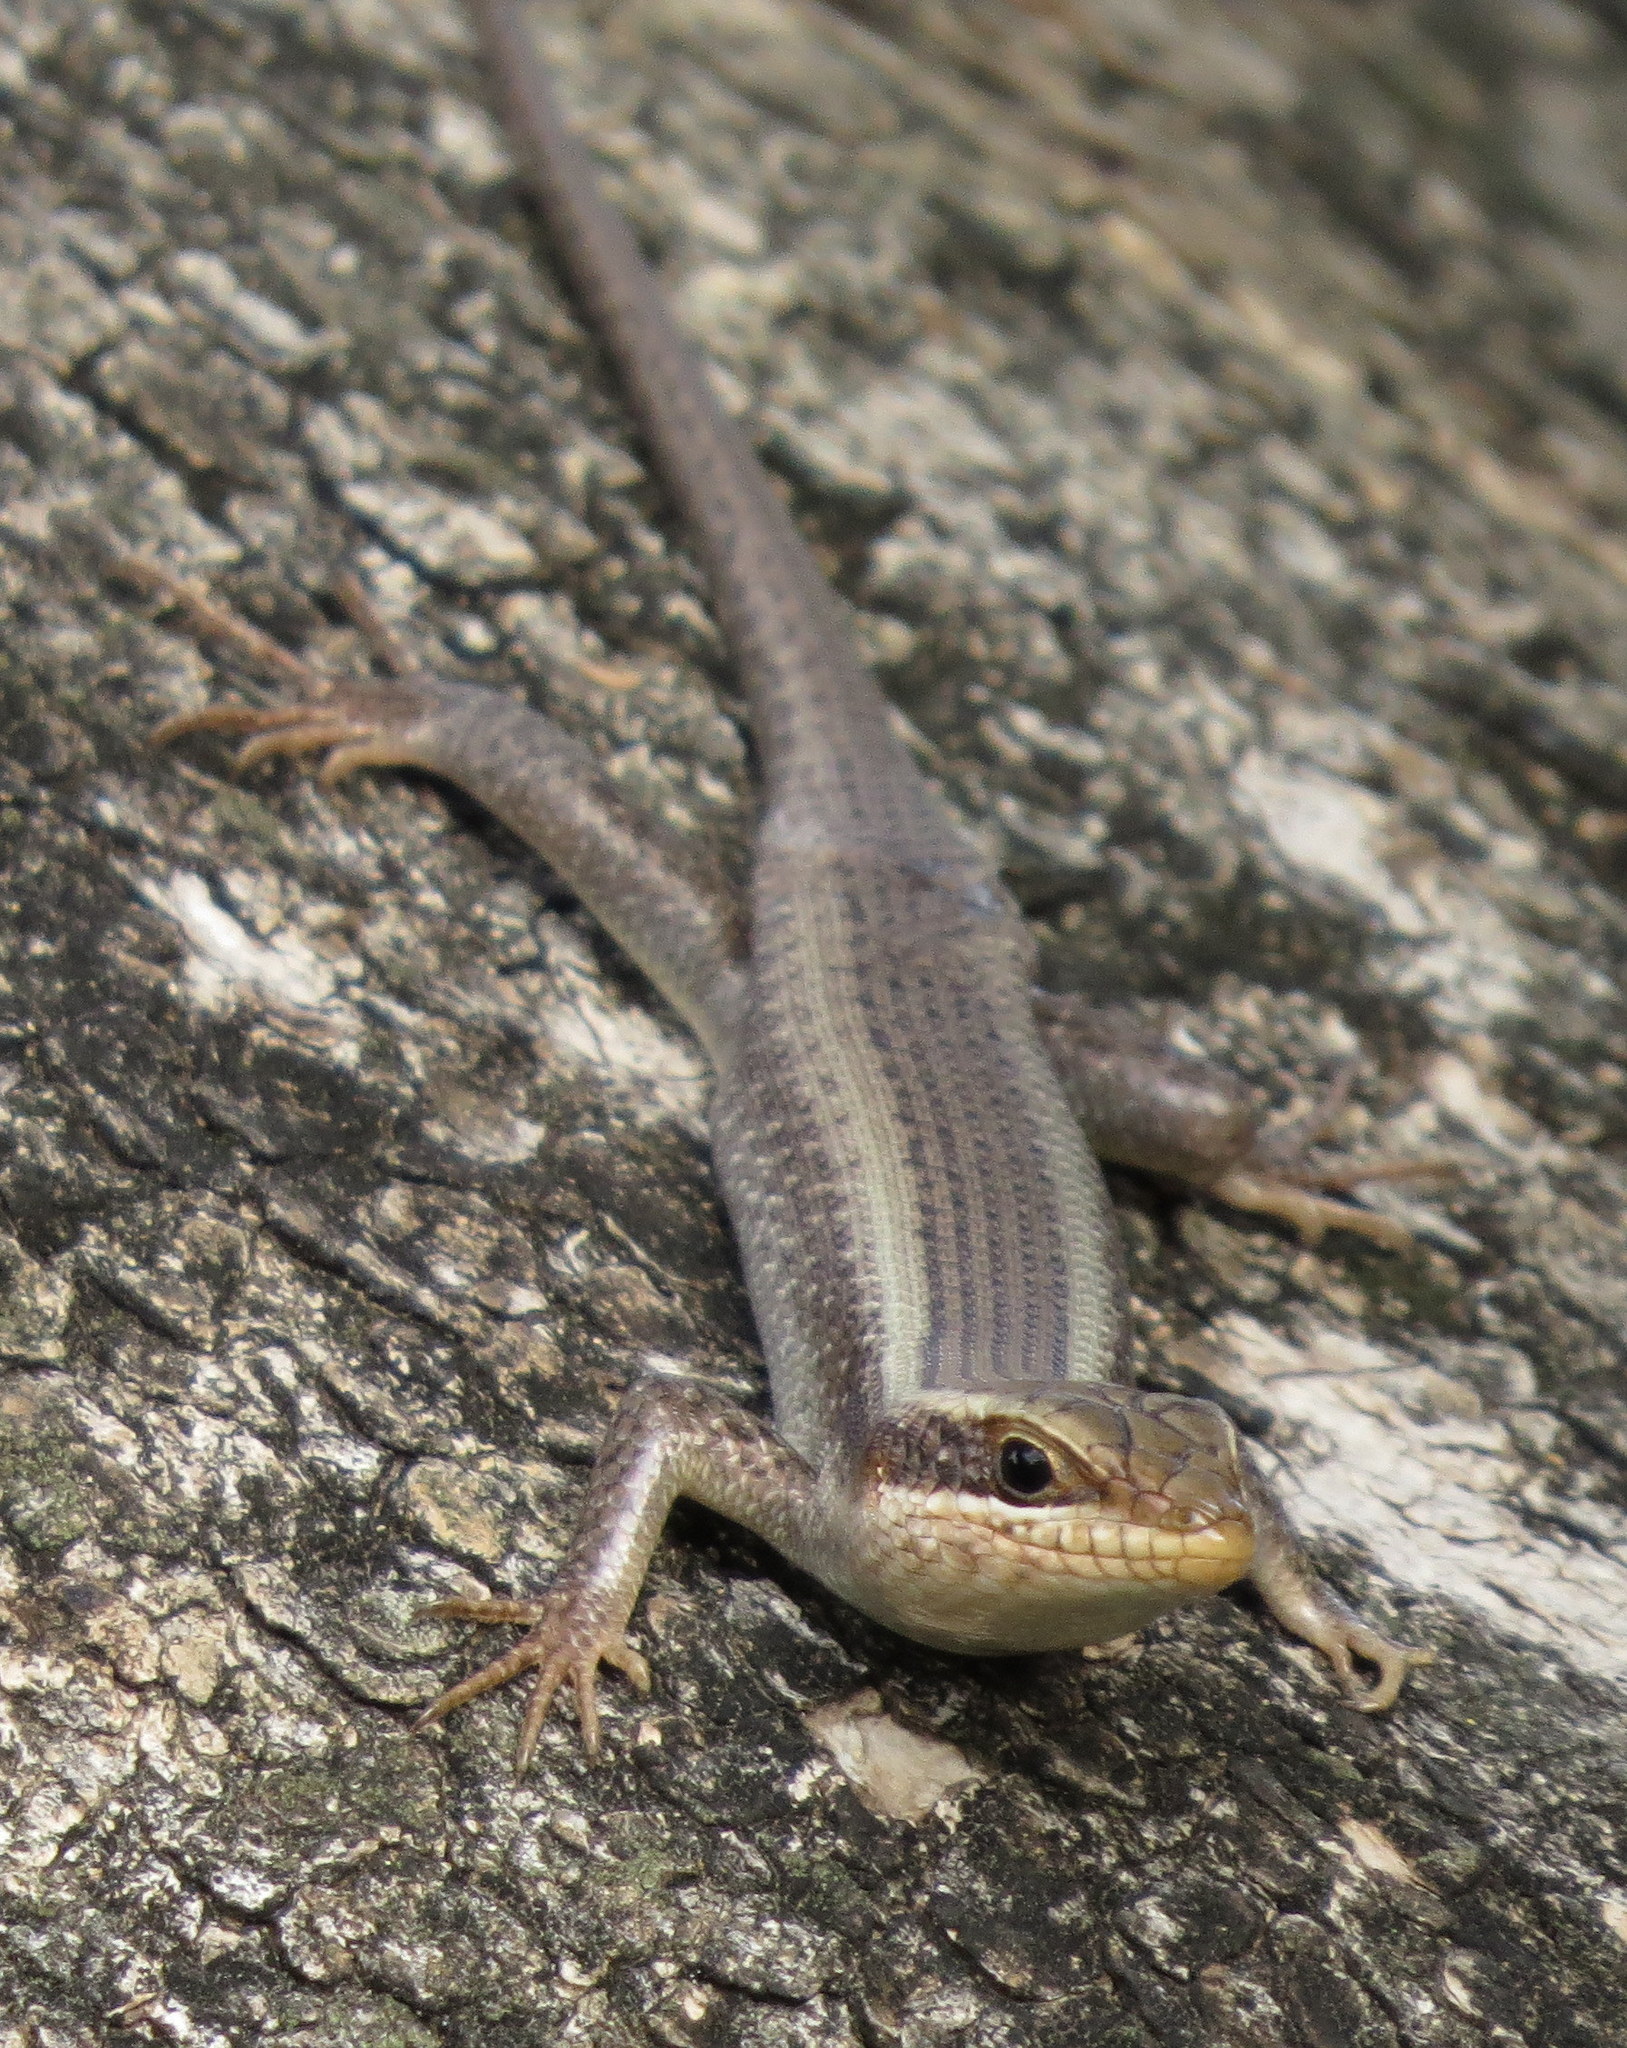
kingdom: Animalia
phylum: Chordata
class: Squamata
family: Scincidae
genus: Trachylepis
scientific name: Trachylepis striata
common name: African striped mabuya
